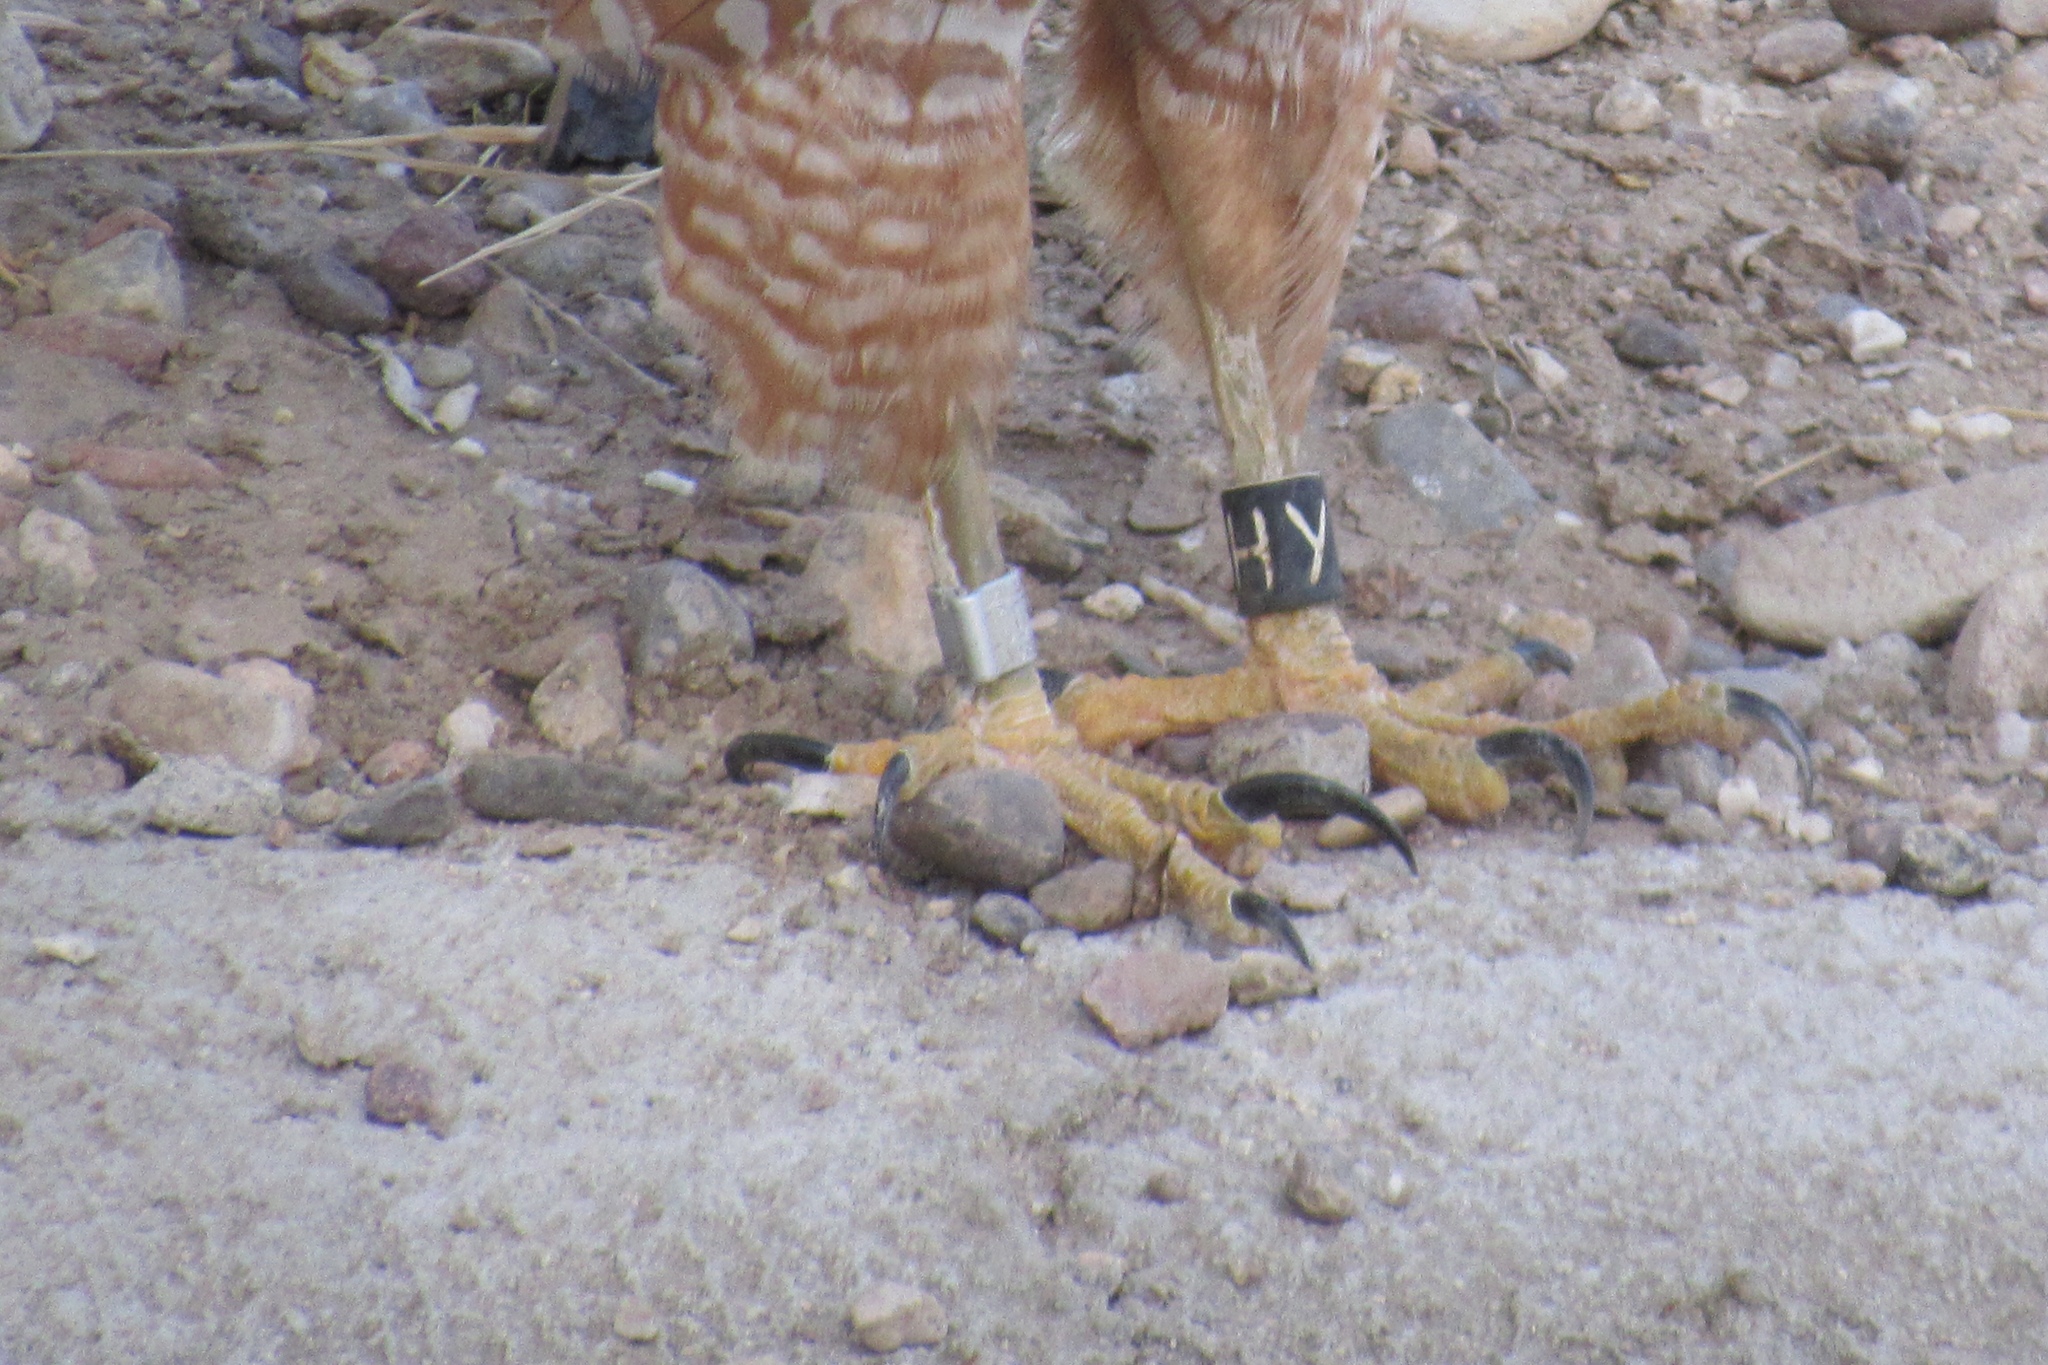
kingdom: Animalia
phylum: Chordata
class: Aves
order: Accipitriformes
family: Accipitridae
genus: Accipiter
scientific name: Accipiter cooperii
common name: Cooper's hawk
